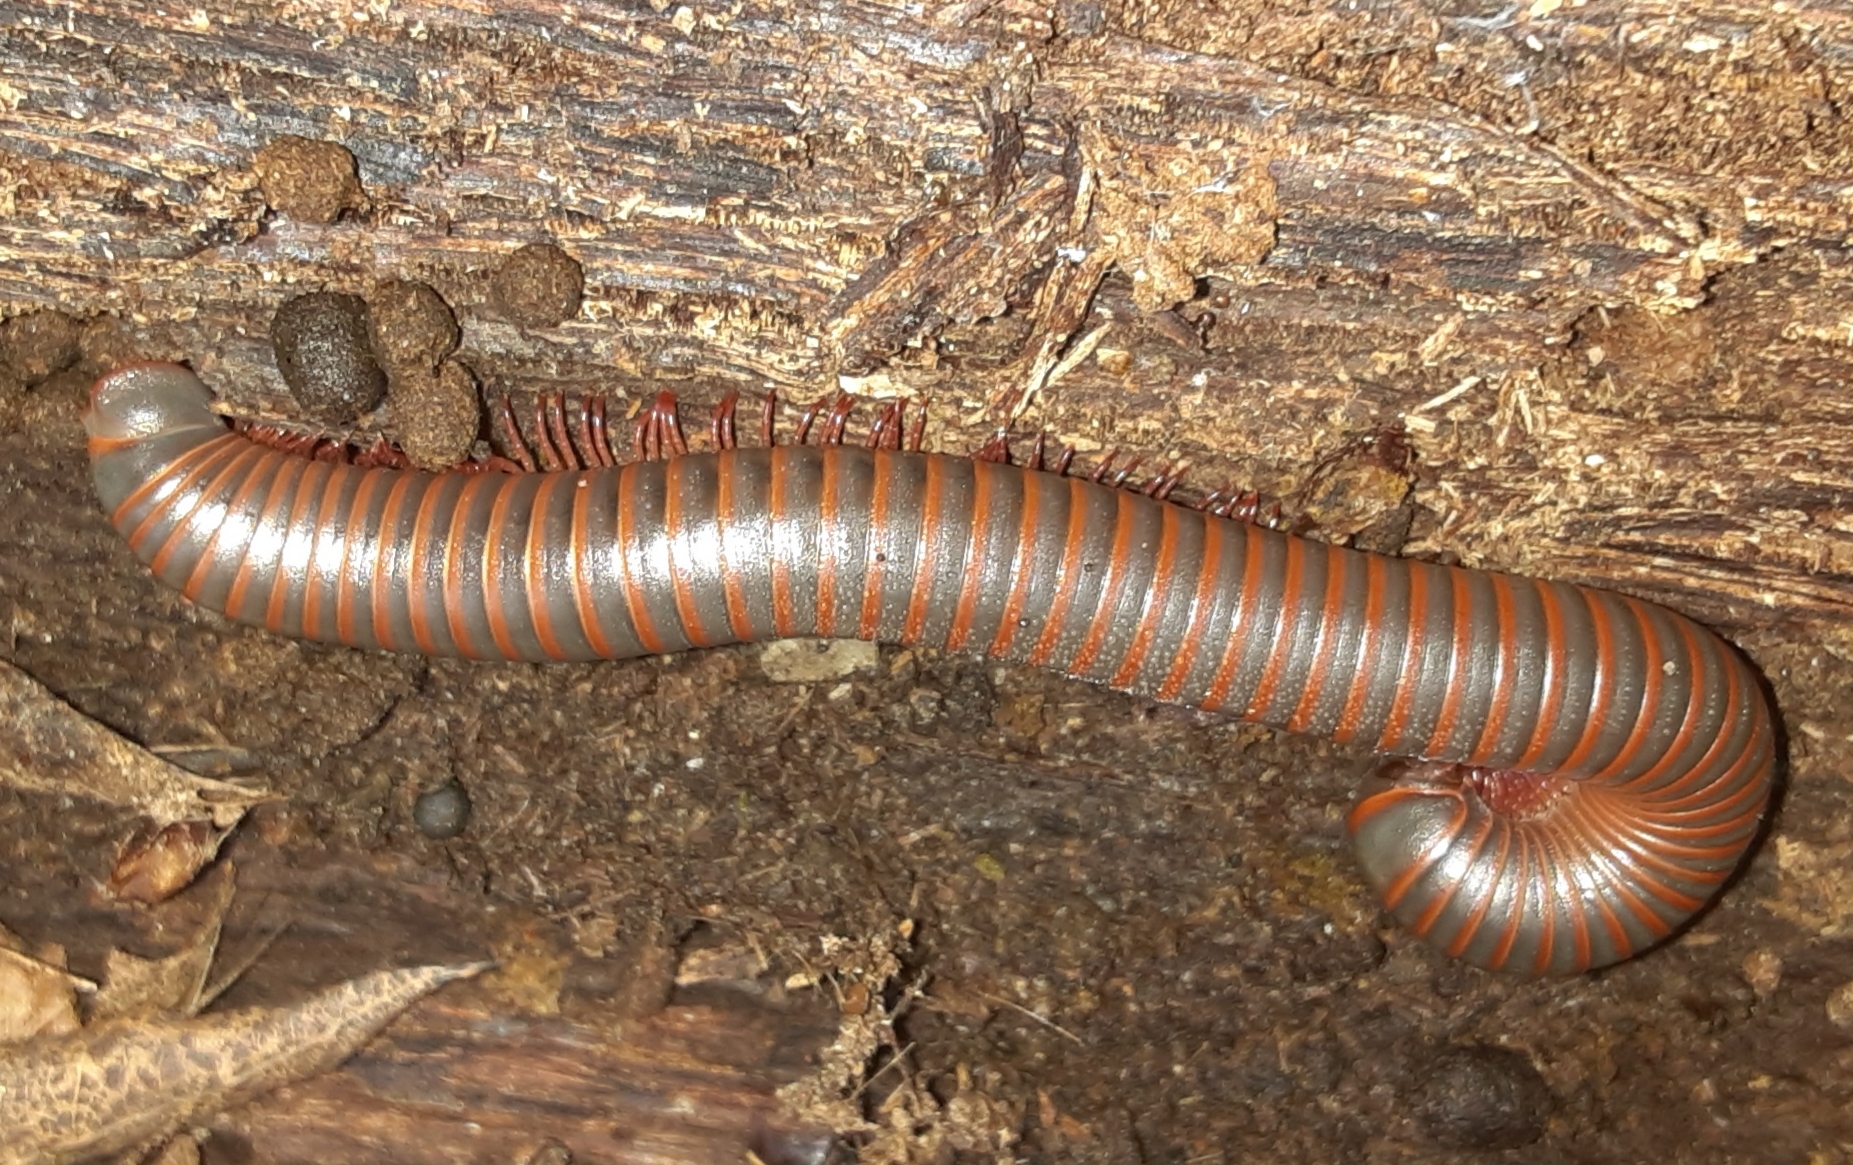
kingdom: Animalia
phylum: Arthropoda
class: Diplopoda
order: Spirobolida
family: Spirobolidae
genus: Narceus
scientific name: Narceus
